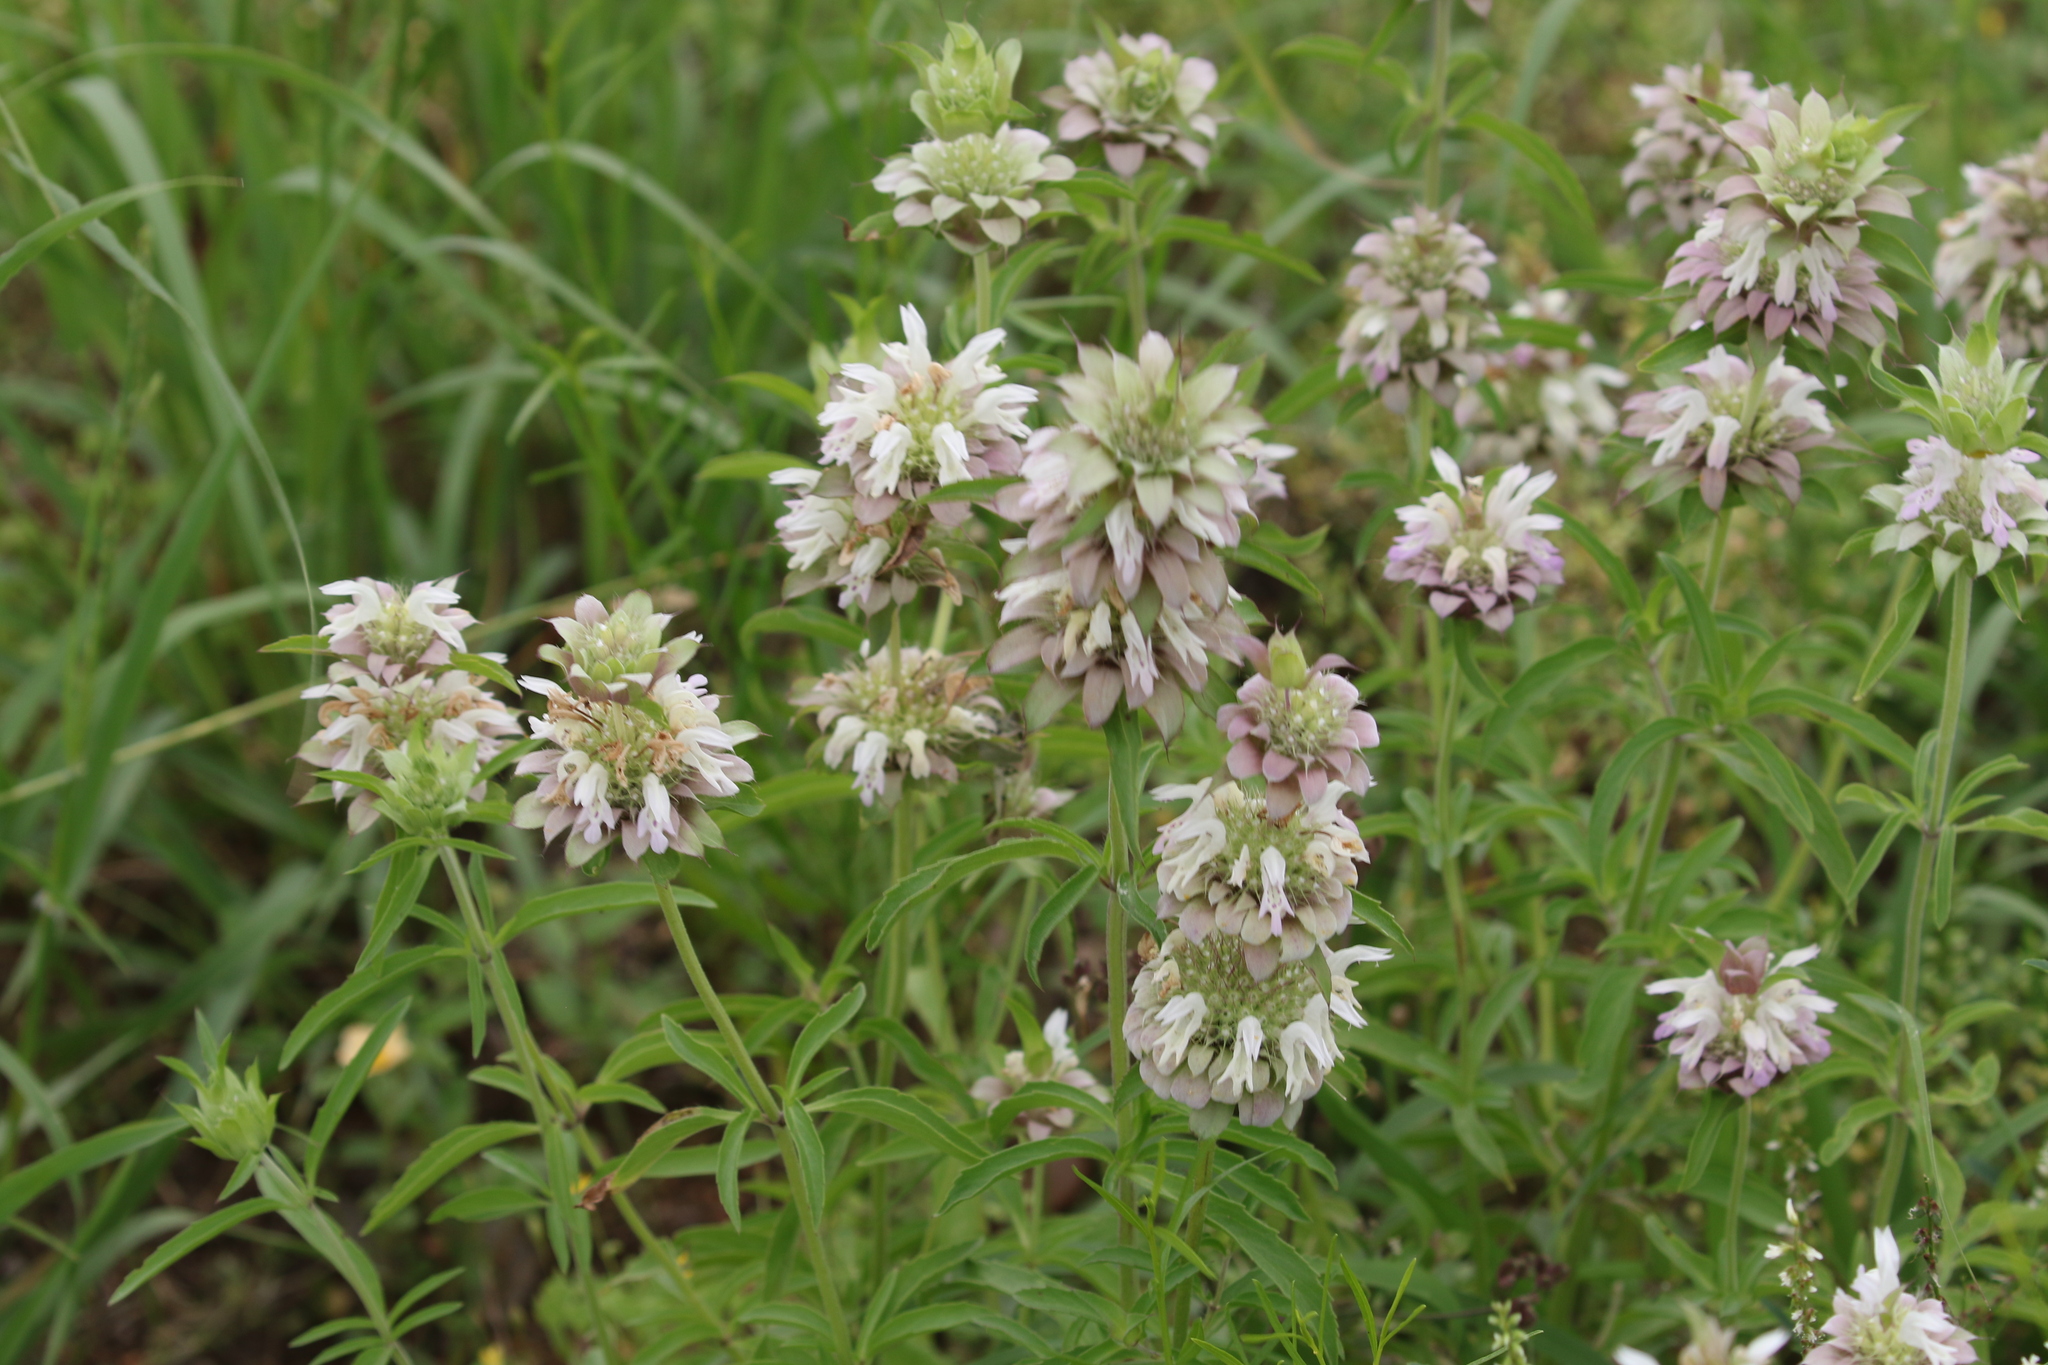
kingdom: Plantae
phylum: Tracheophyta
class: Magnoliopsida
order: Lamiales
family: Lamiaceae
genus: Monarda
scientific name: Monarda citriodora
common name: Lemon beebalm
